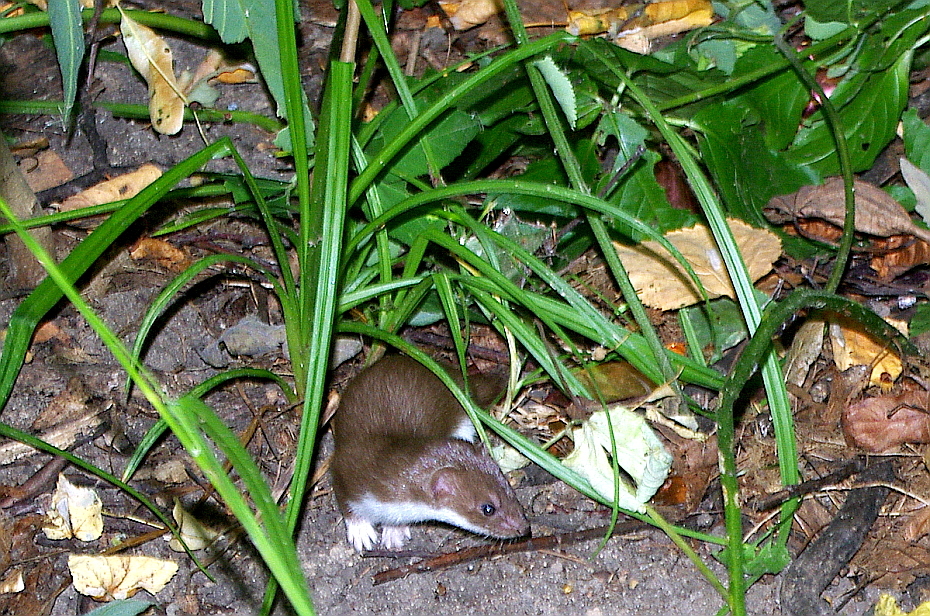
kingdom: Plantae
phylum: Tracheophyta
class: Liliopsida
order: Poales
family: Cyperaceae
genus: Carex
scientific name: Carex pilosa
